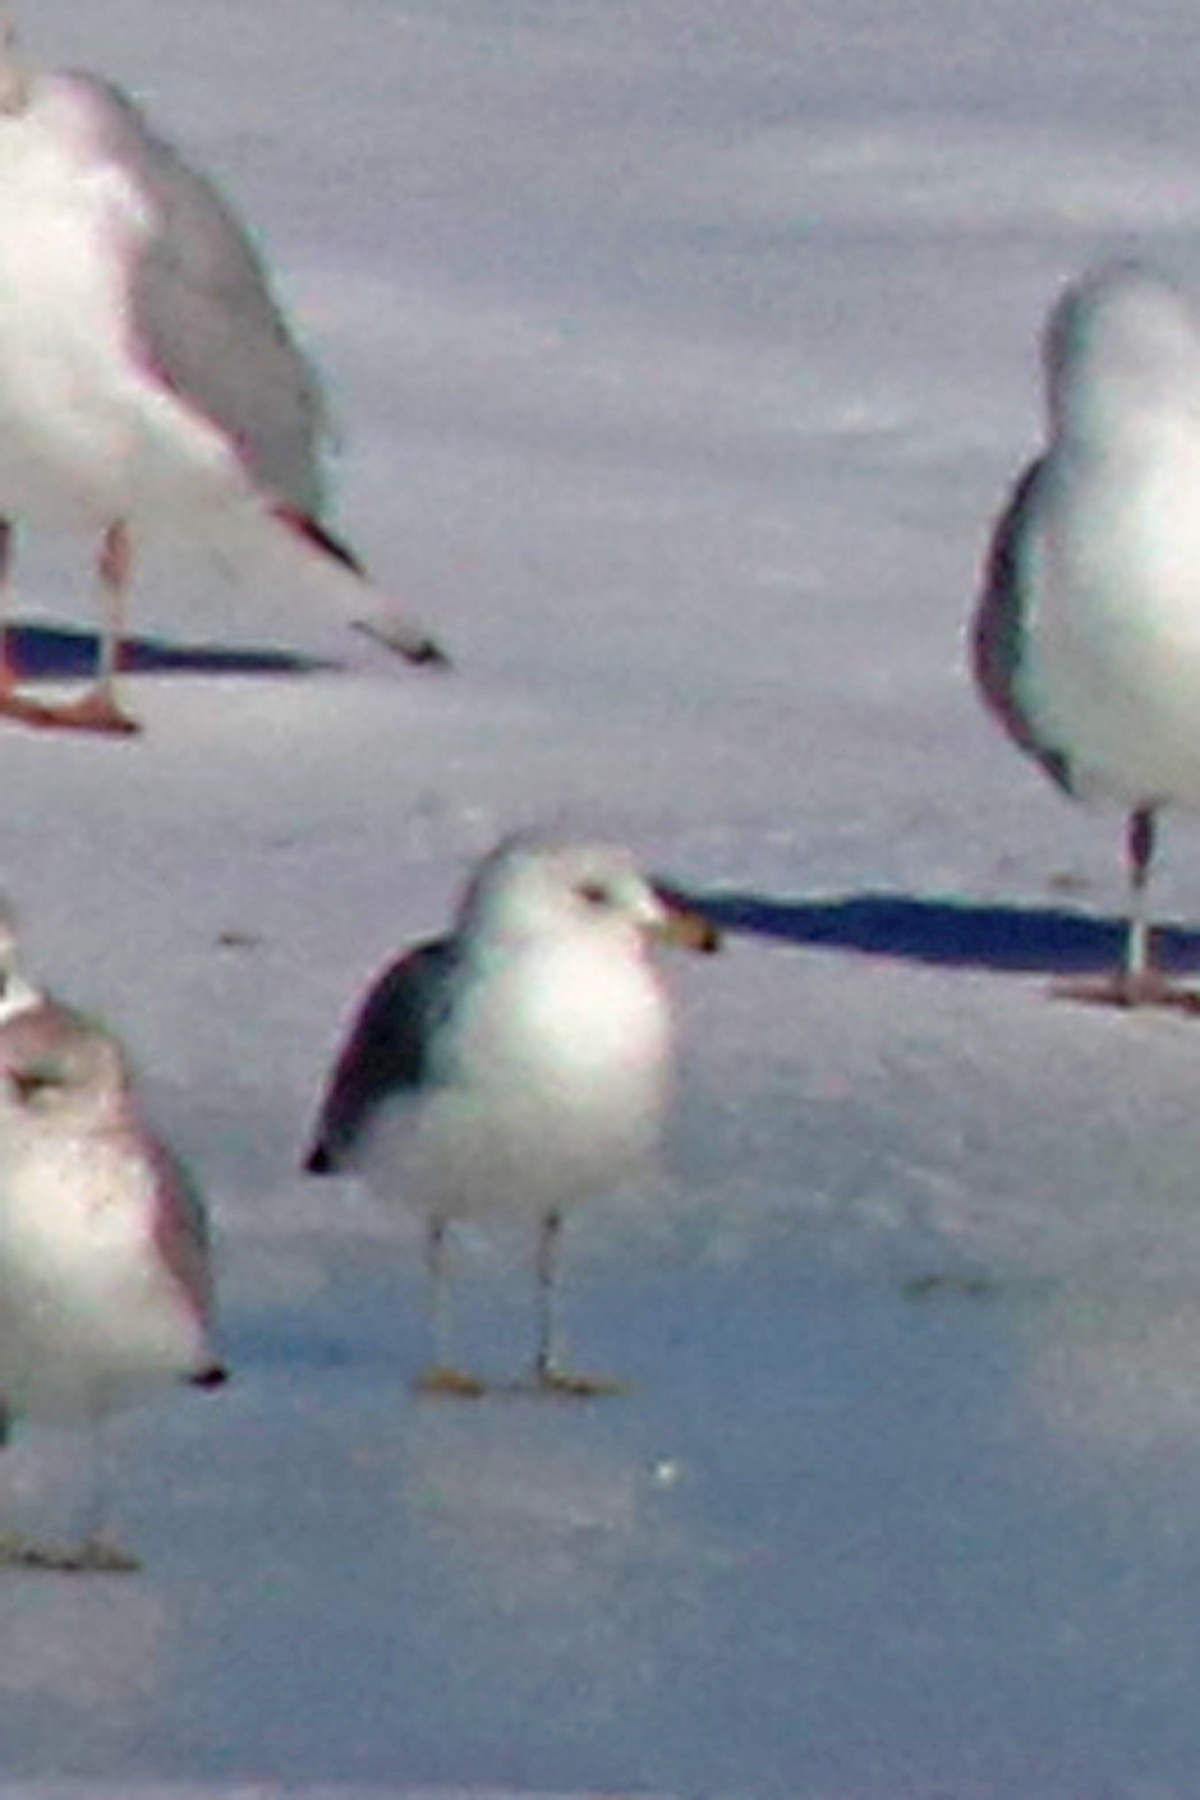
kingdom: Animalia
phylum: Chordata
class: Aves
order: Charadriiformes
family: Laridae
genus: Larus
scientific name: Larus delawarensis
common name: Ring-billed gull
